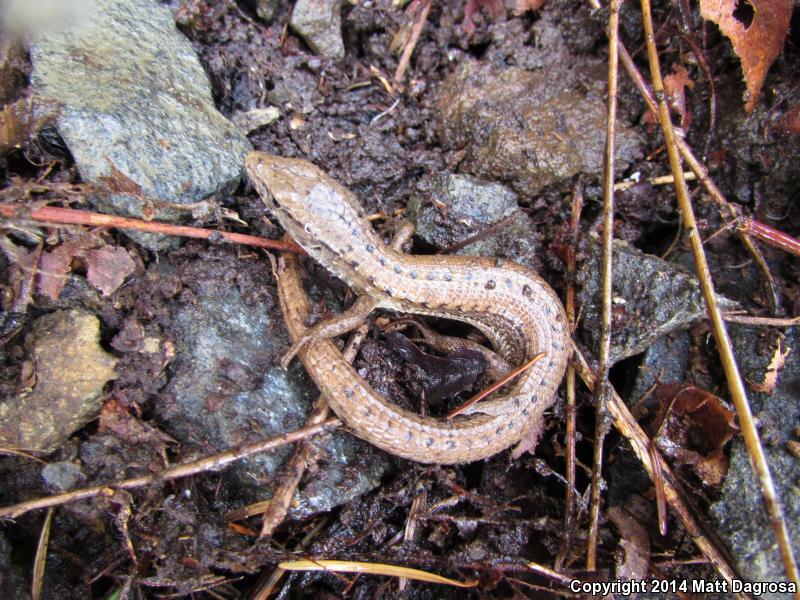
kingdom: Animalia
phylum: Chordata
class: Squamata
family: Anguidae
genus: Elgaria
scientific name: Elgaria coerulea
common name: Northern alligator lizard
